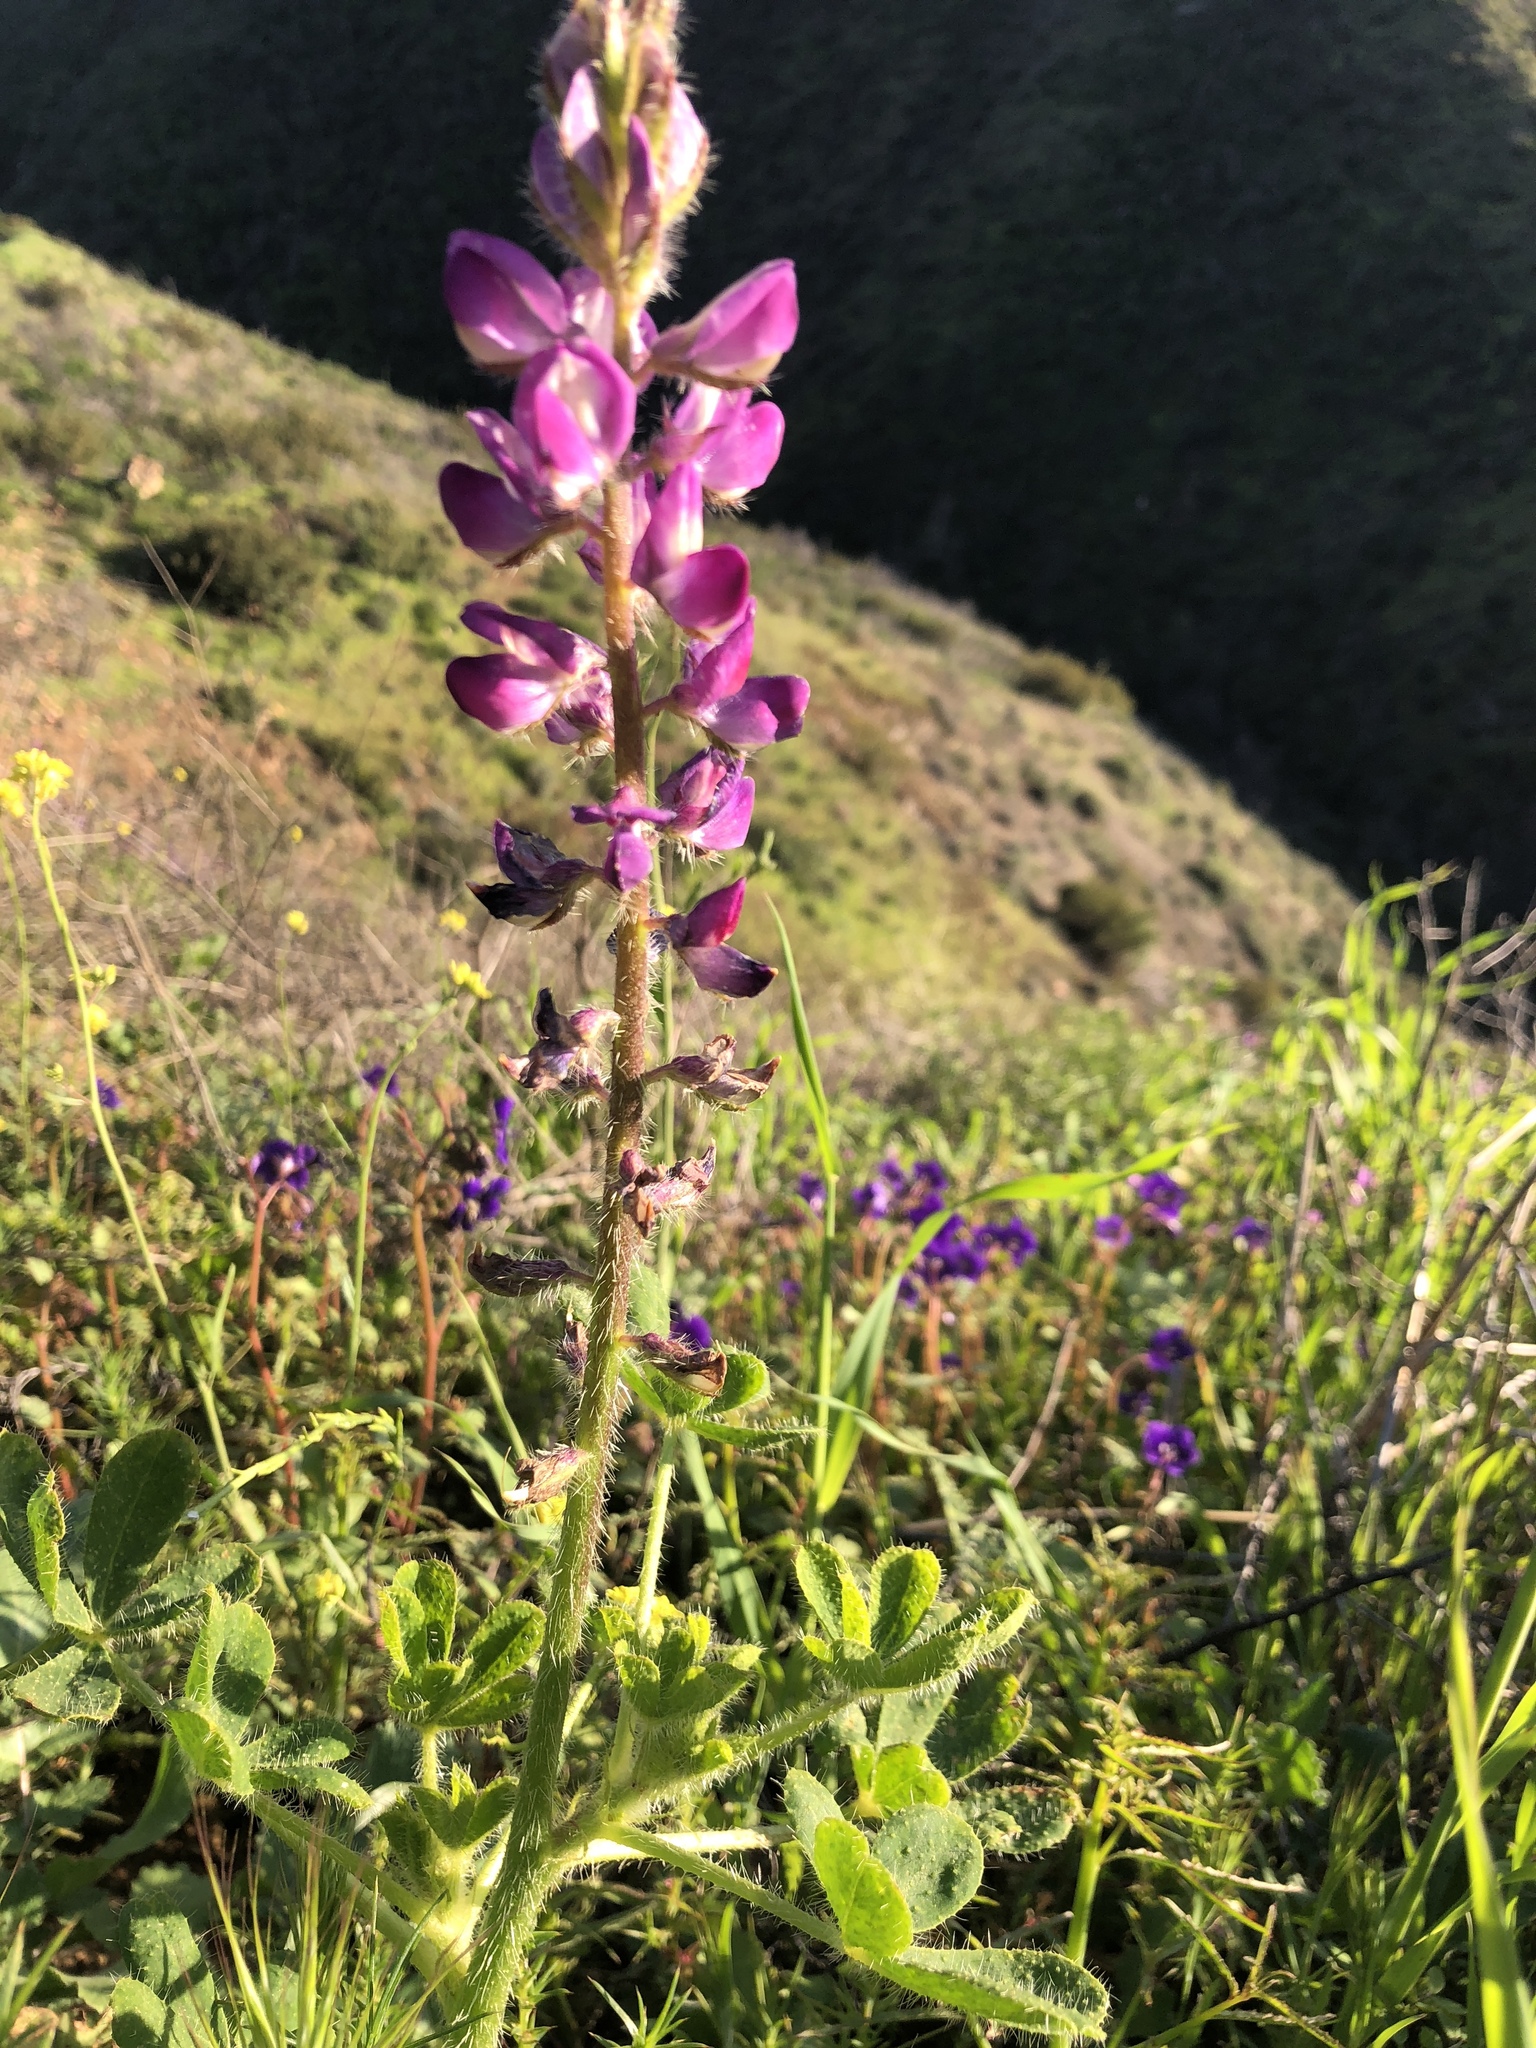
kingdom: Plantae
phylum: Tracheophyta
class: Magnoliopsida
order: Fabales
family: Fabaceae
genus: Lupinus
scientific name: Lupinus hirsutissimus
